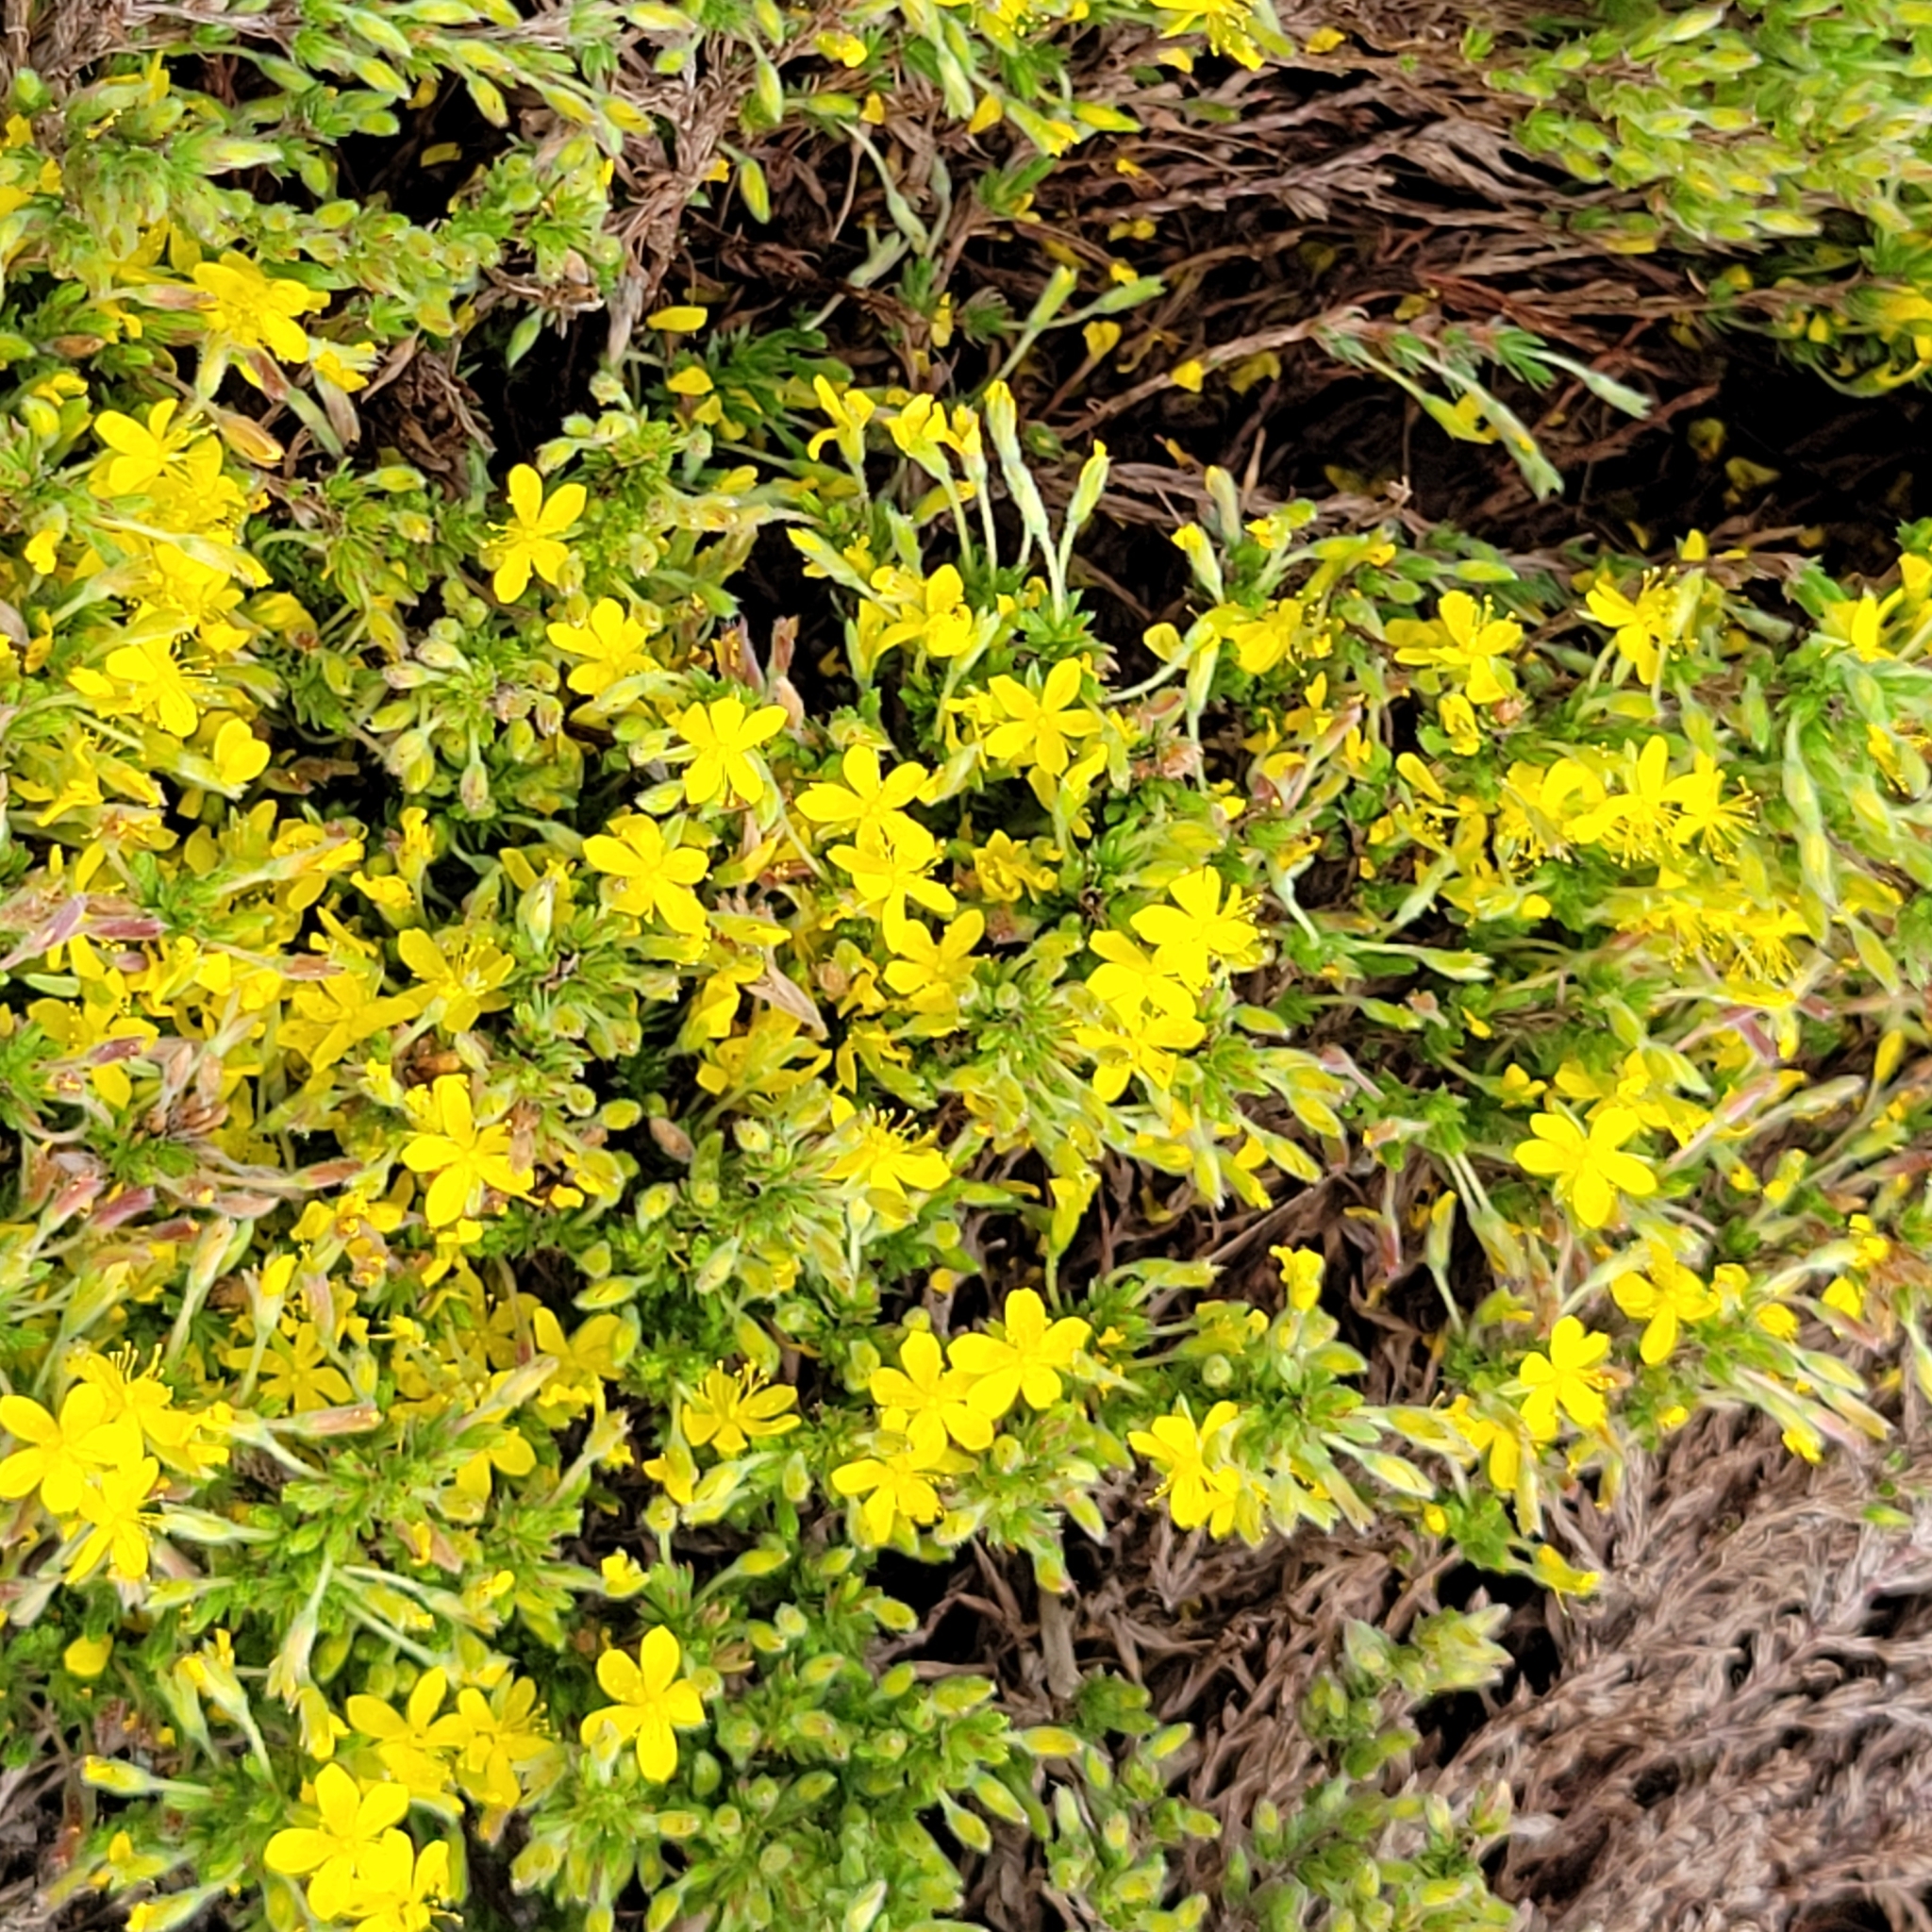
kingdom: Plantae
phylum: Tracheophyta
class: Magnoliopsida
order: Malvales
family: Cistaceae
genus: Hudsonia
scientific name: Hudsonia ericoides
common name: Golden-heather
